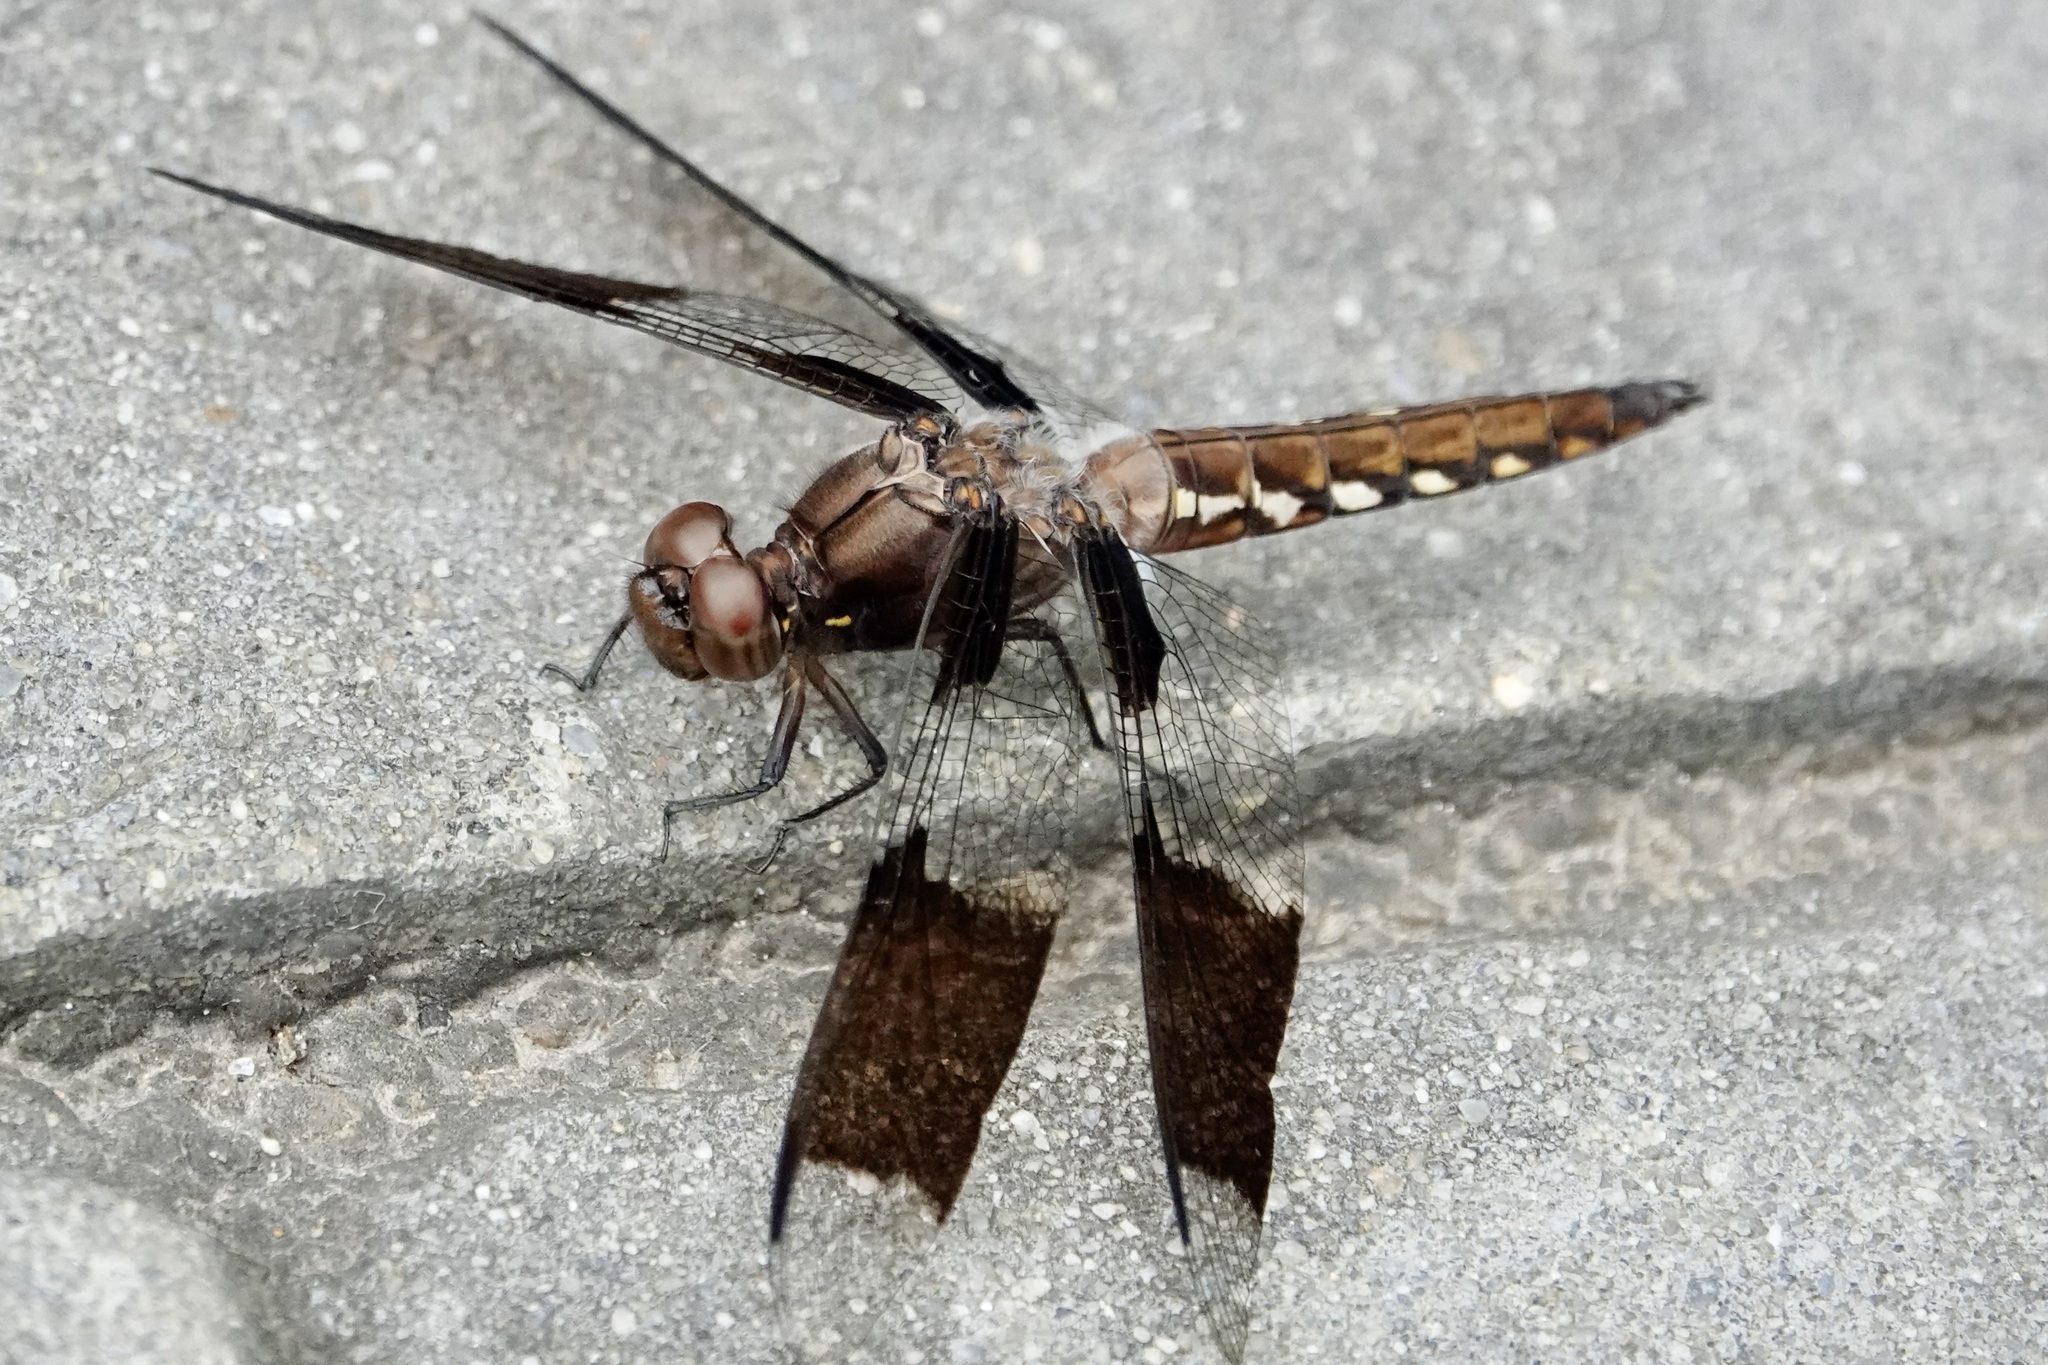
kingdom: Animalia
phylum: Arthropoda
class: Insecta
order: Odonata
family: Libellulidae
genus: Plathemis
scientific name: Plathemis lydia
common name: Common whitetail
